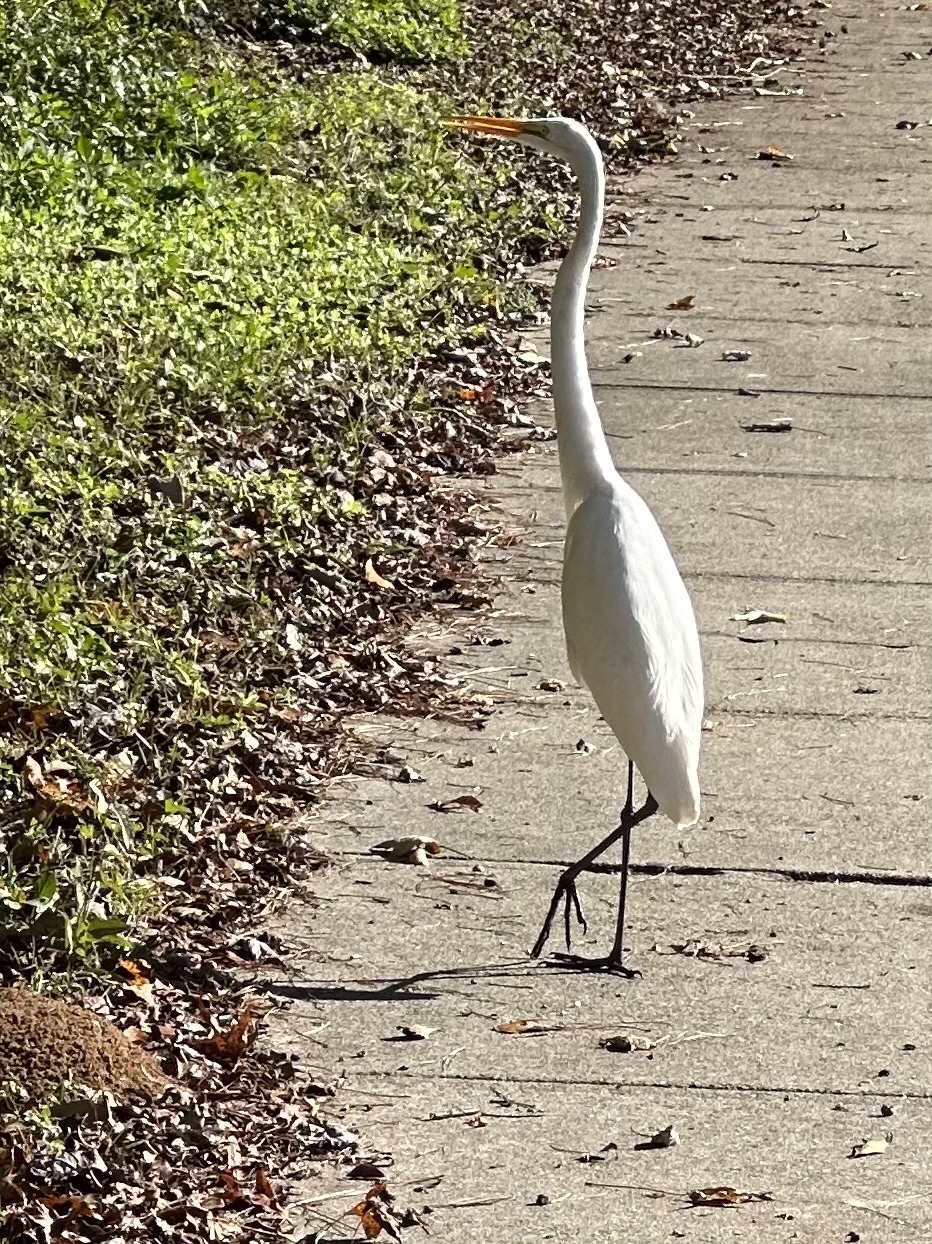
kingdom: Animalia
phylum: Chordata
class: Aves
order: Pelecaniformes
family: Ardeidae
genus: Ardea
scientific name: Ardea alba
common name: Great egret
